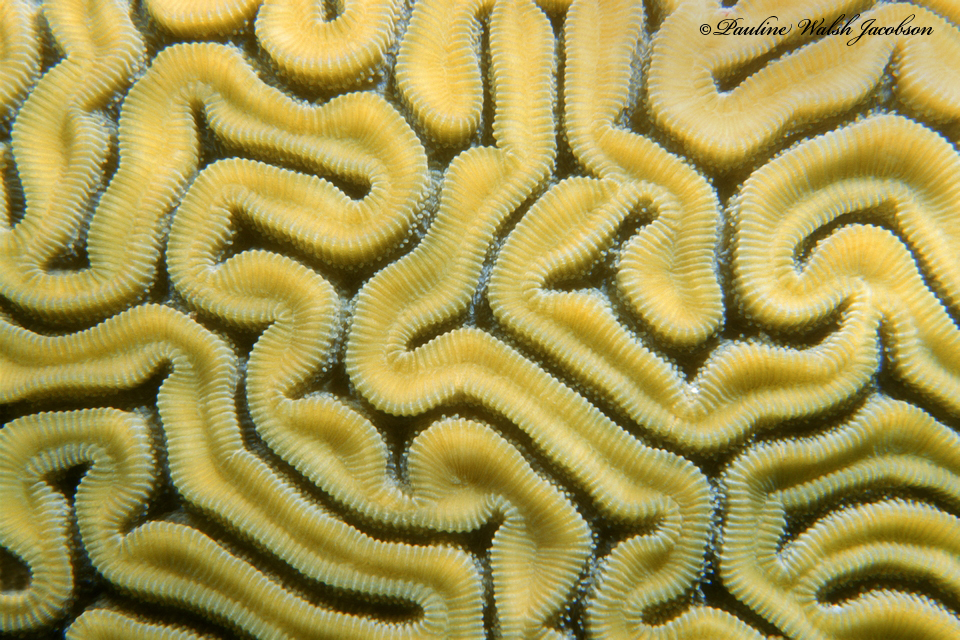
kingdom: Animalia
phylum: Cnidaria
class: Anthozoa
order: Scleractinia
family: Faviidae
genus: Diploria
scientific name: Diploria labyrinthiformis
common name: Grooved brain coral
